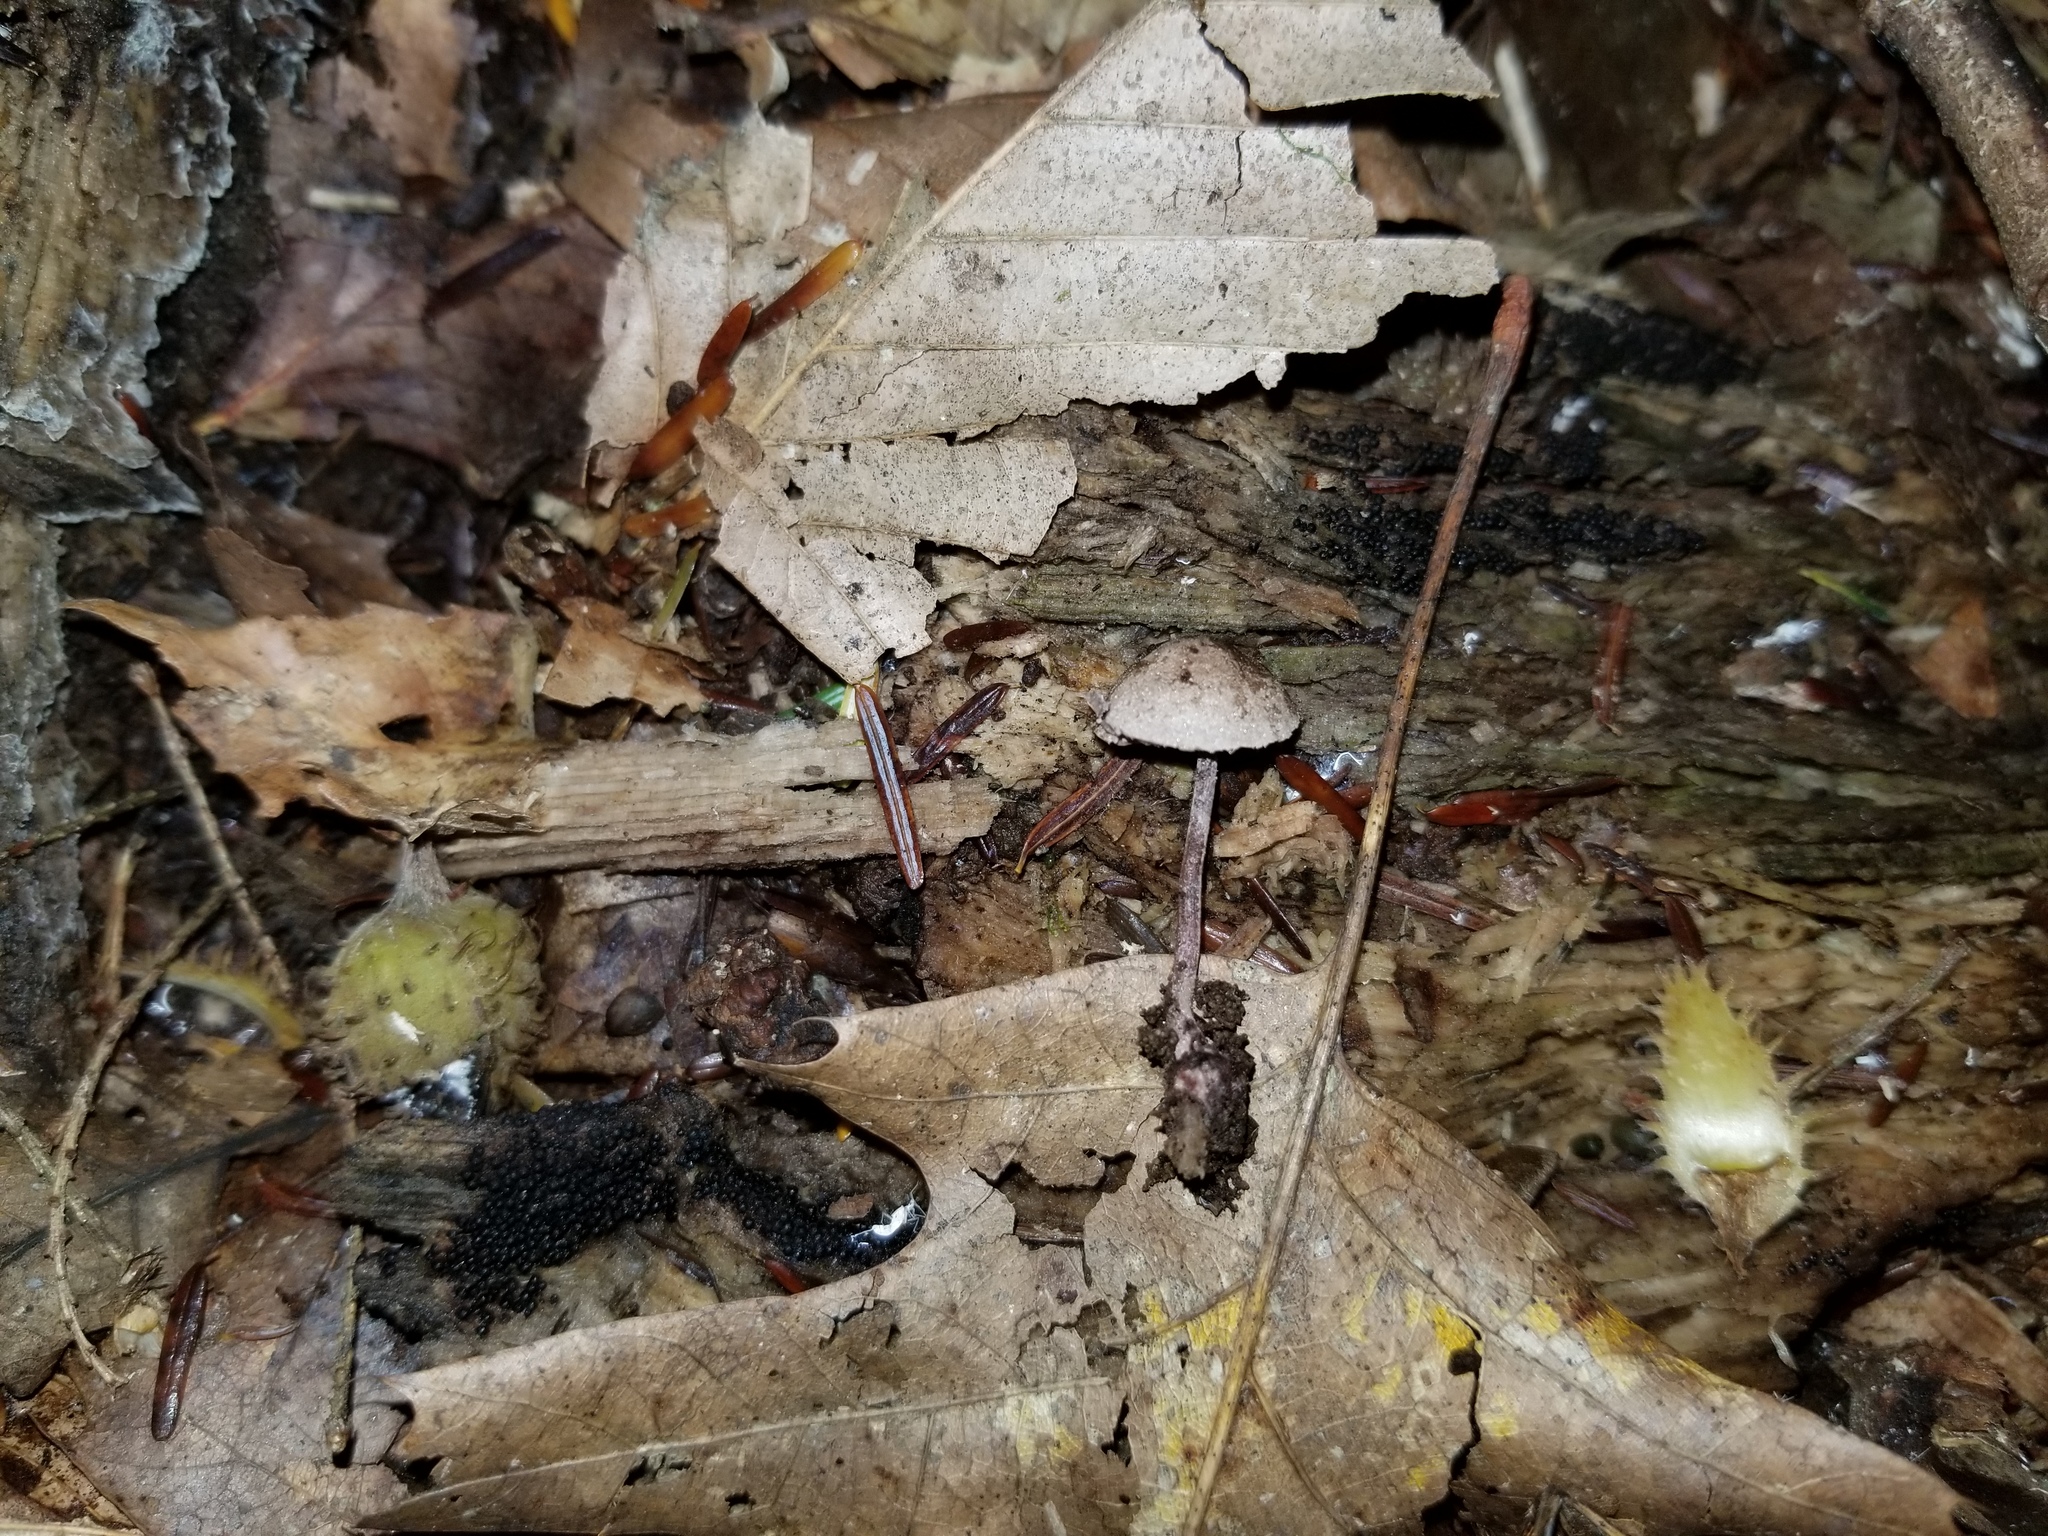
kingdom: Fungi
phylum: Basidiomycota
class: Agaricomycetes
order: Agaricales
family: Agaricaceae
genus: Melanophyllum
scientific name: Melanophyllum haematospermum
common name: Redspored dapperling
